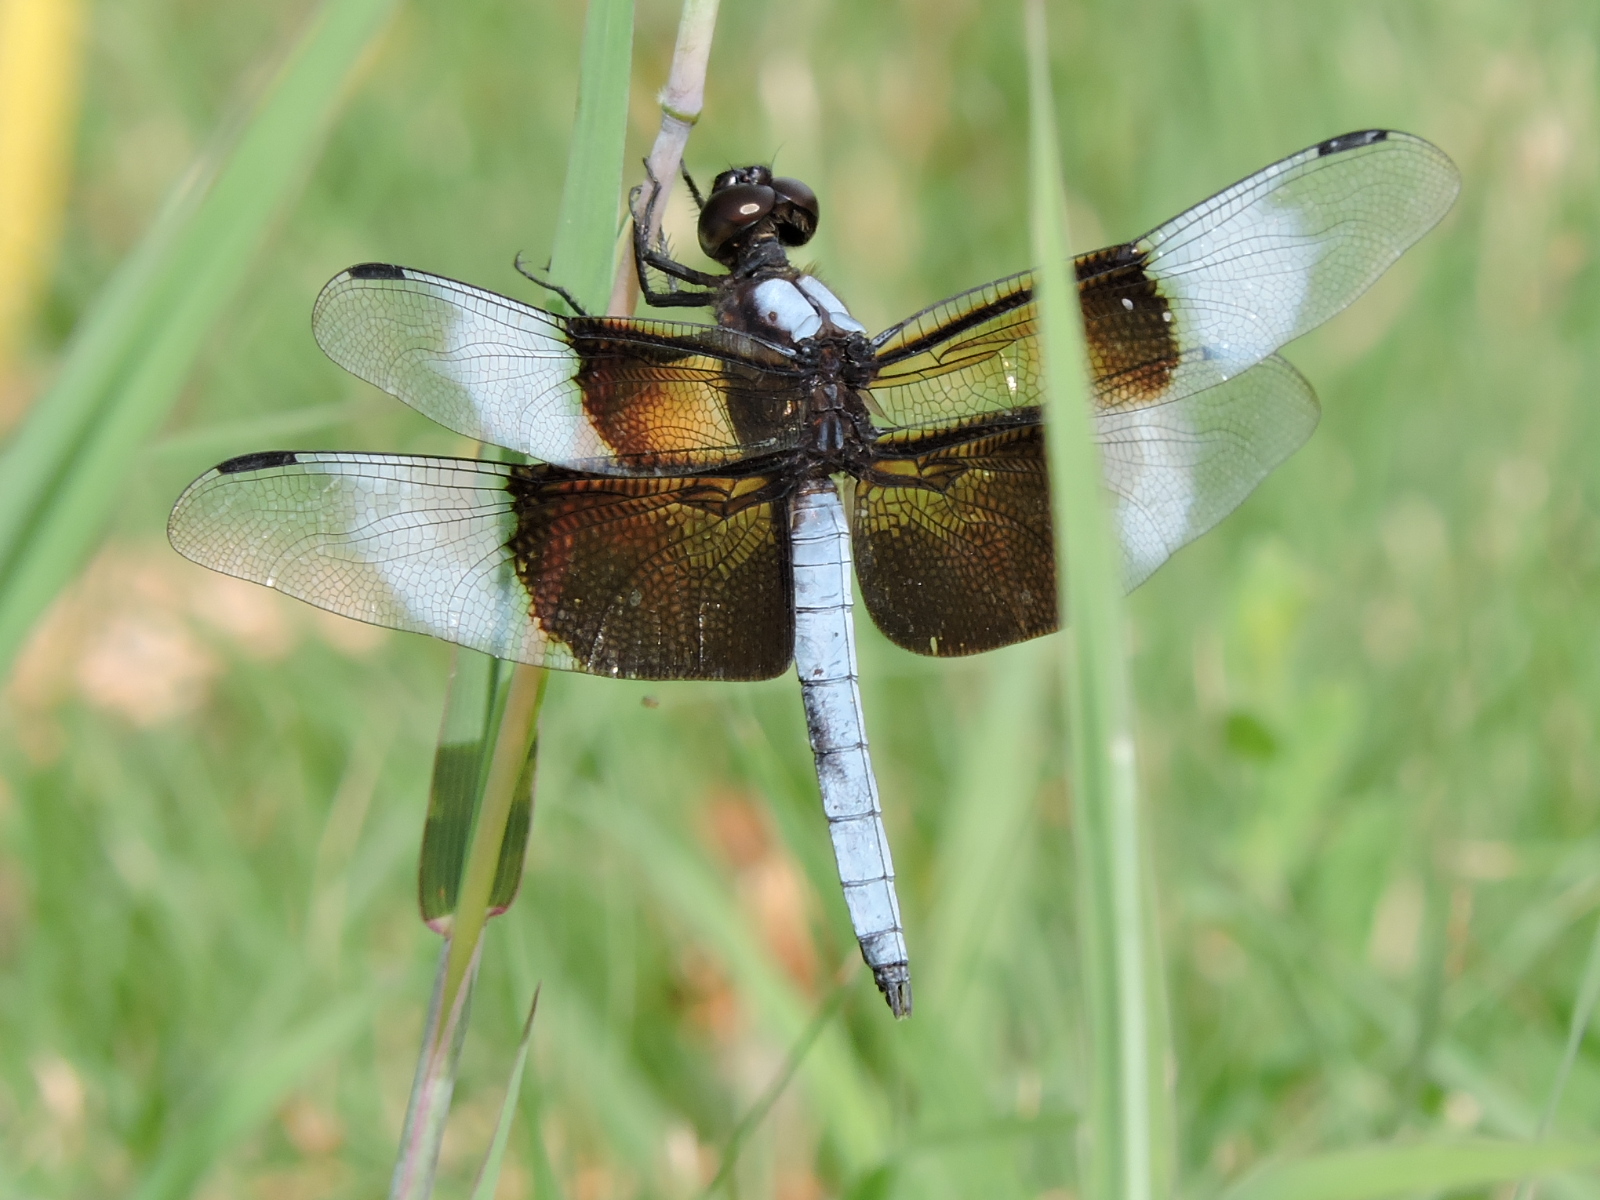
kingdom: Animalia
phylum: Arthropoda
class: Insecta
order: Odonata
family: Libellulidae
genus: Libellula
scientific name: Libellula luctuosa
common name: Widow skimmer
